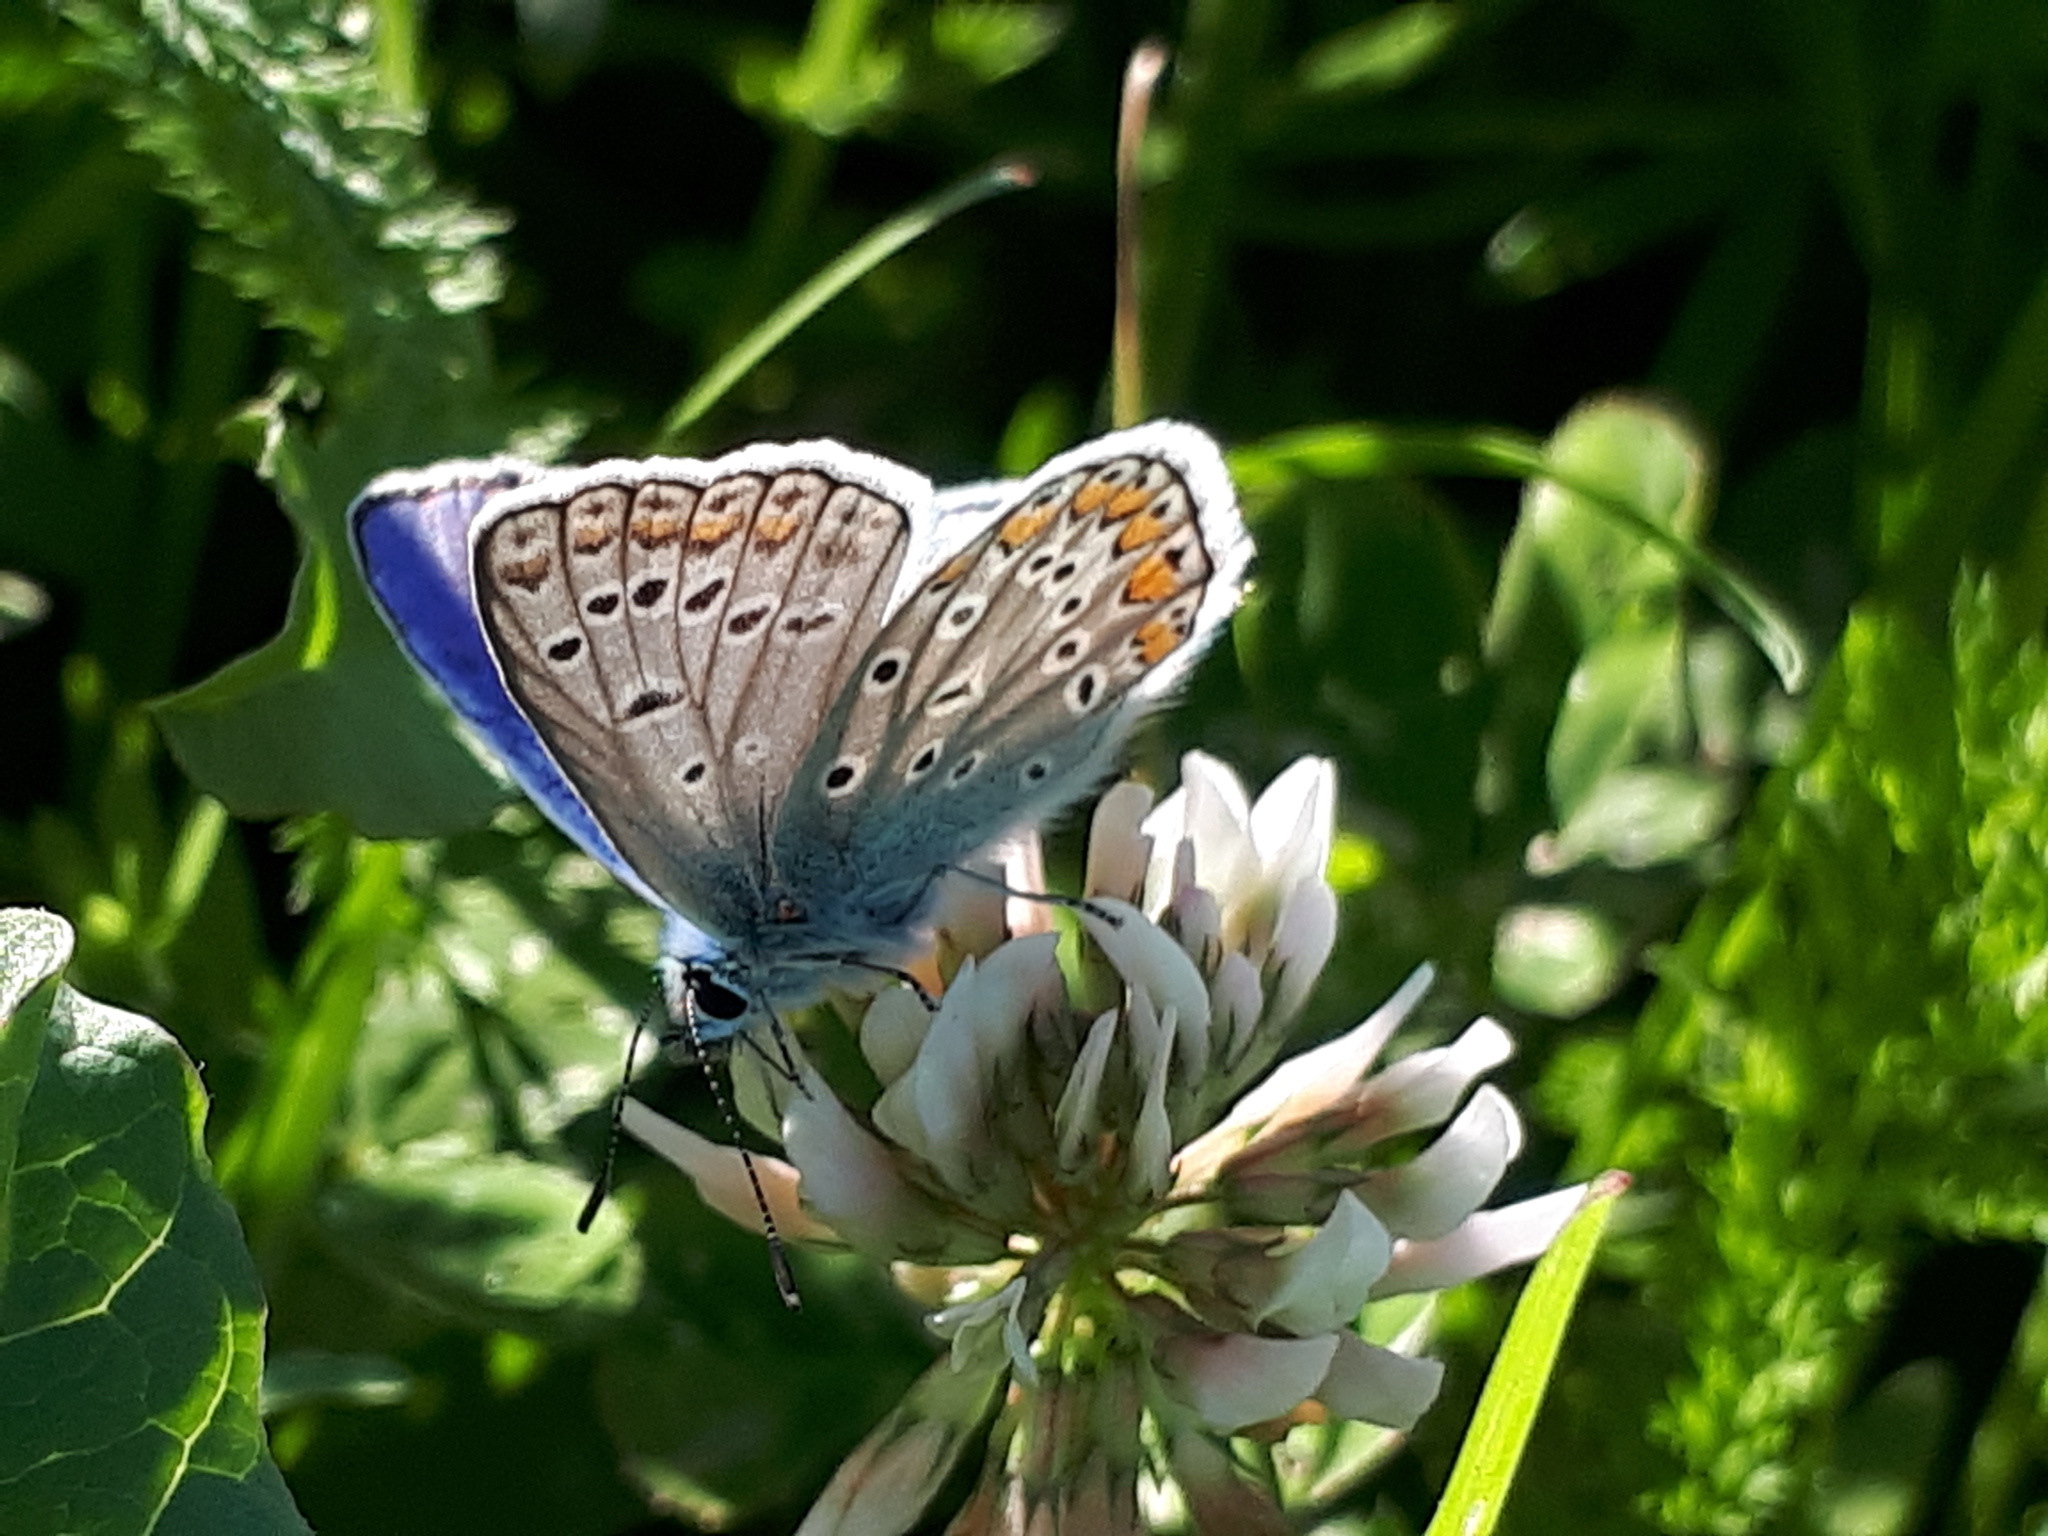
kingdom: Animalia
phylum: Arthropoda
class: Insecta
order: Lepidoptera
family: Lycaenidae
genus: Polyommatus
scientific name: Polyommatus icarus
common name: Common blue
